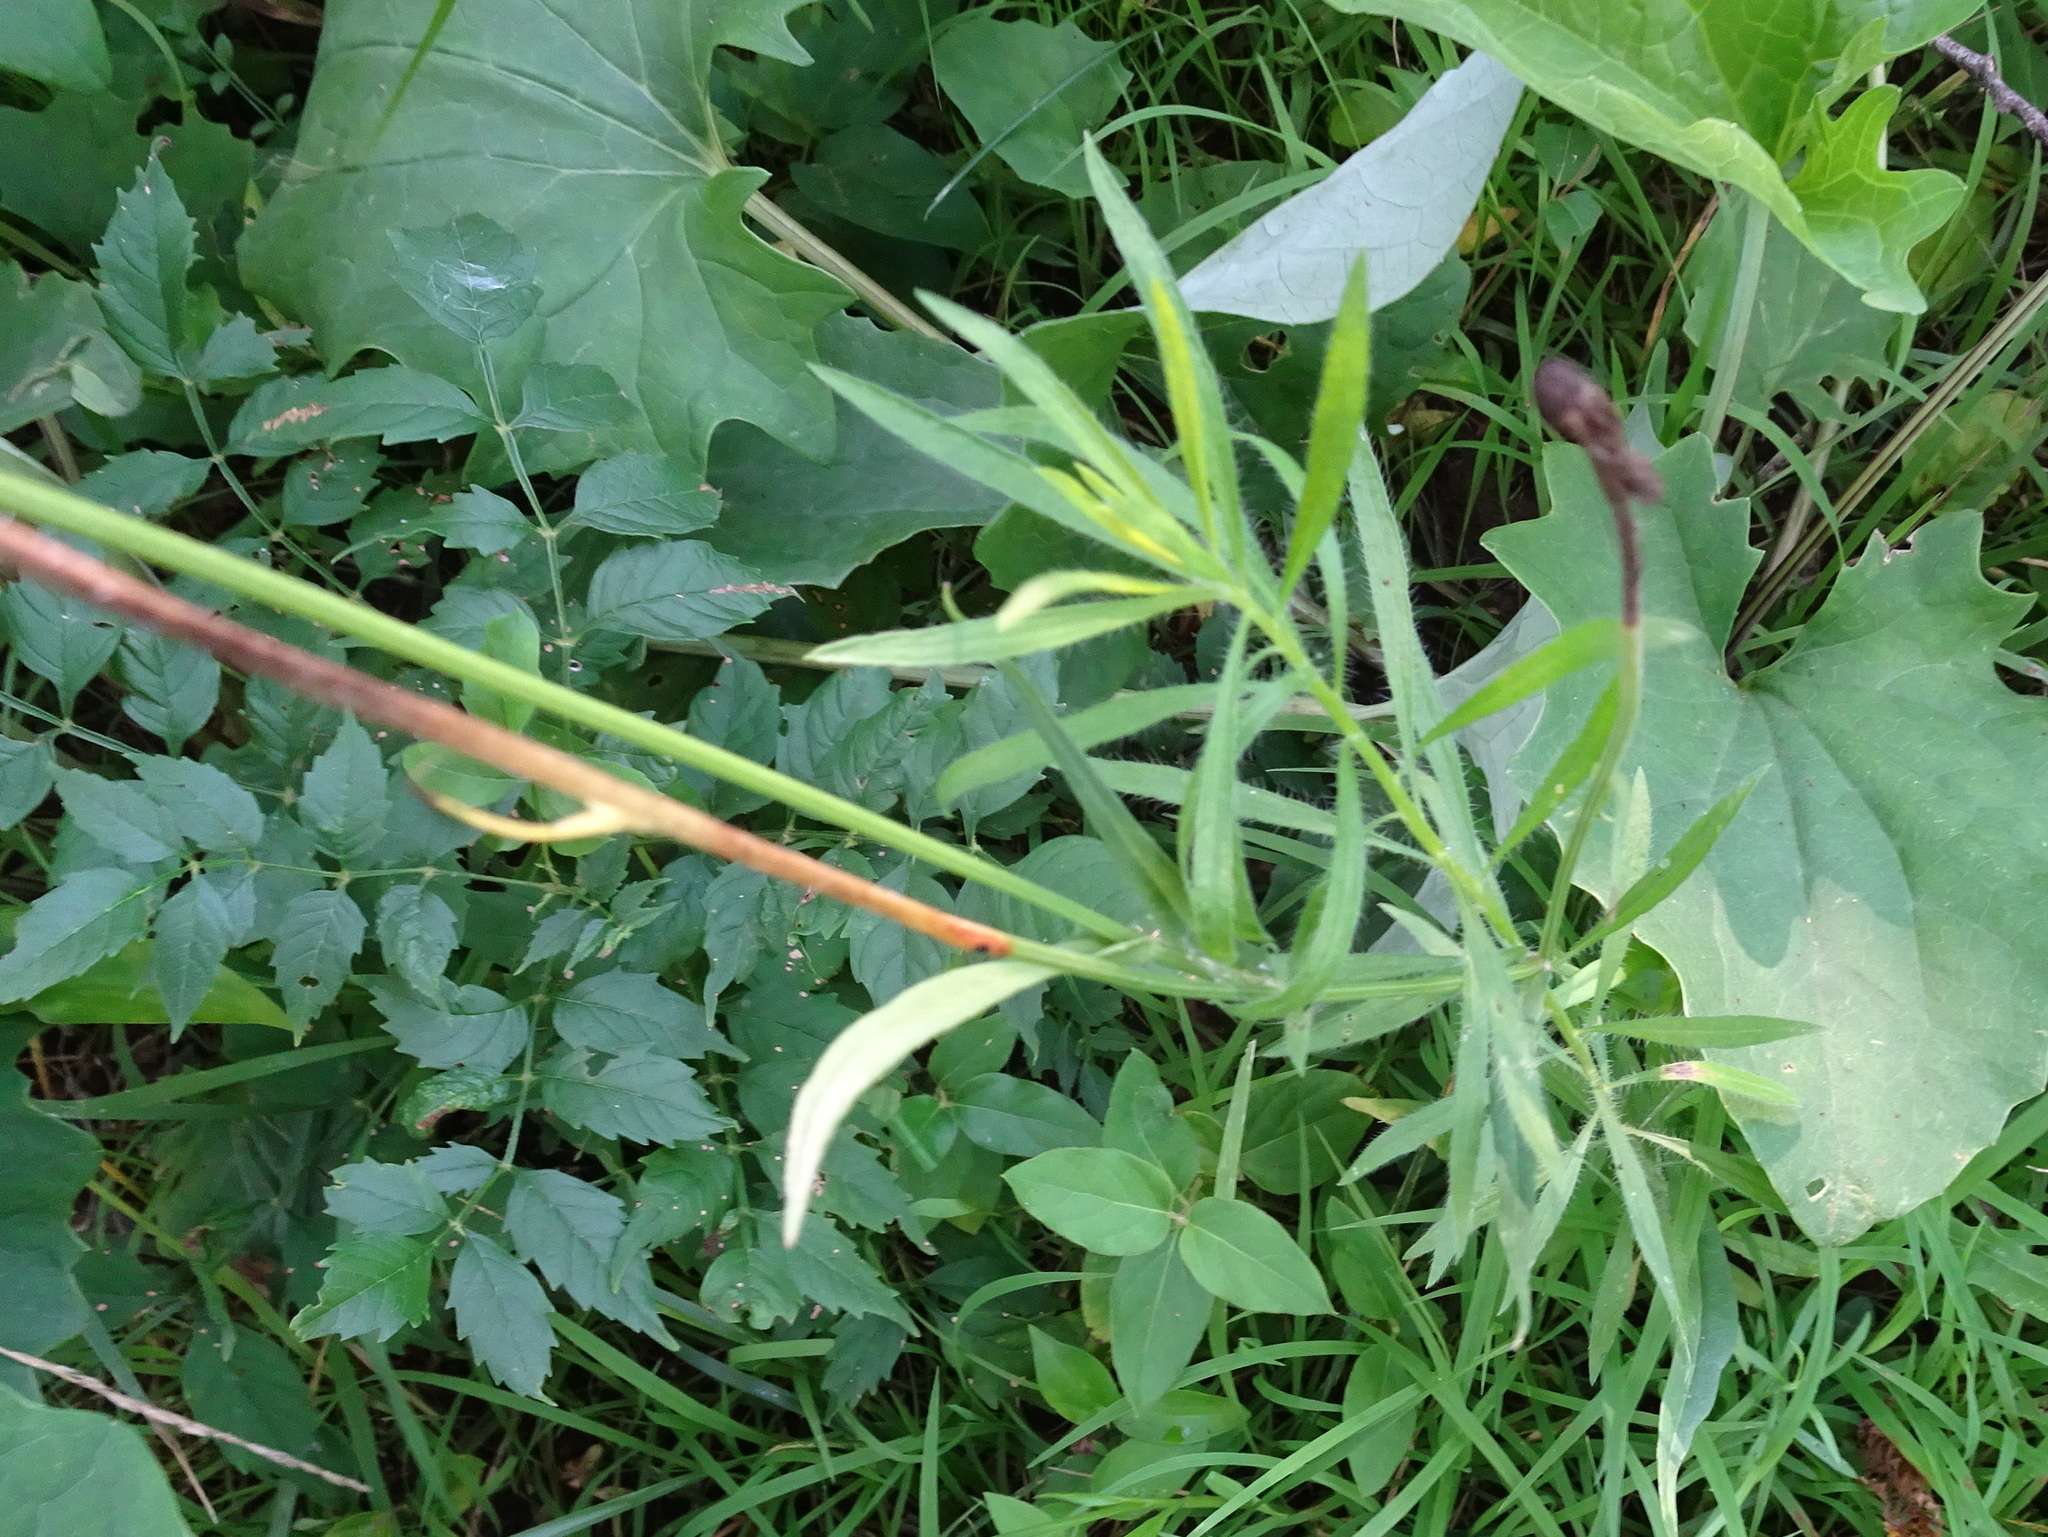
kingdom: Plantae
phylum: Tracheophyta
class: Magnoliopsida
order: Asterales
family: Asteraceae
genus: Pyrrhopappus
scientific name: Pyrrhopappus carolinianus
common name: Carolina desert-chicory
